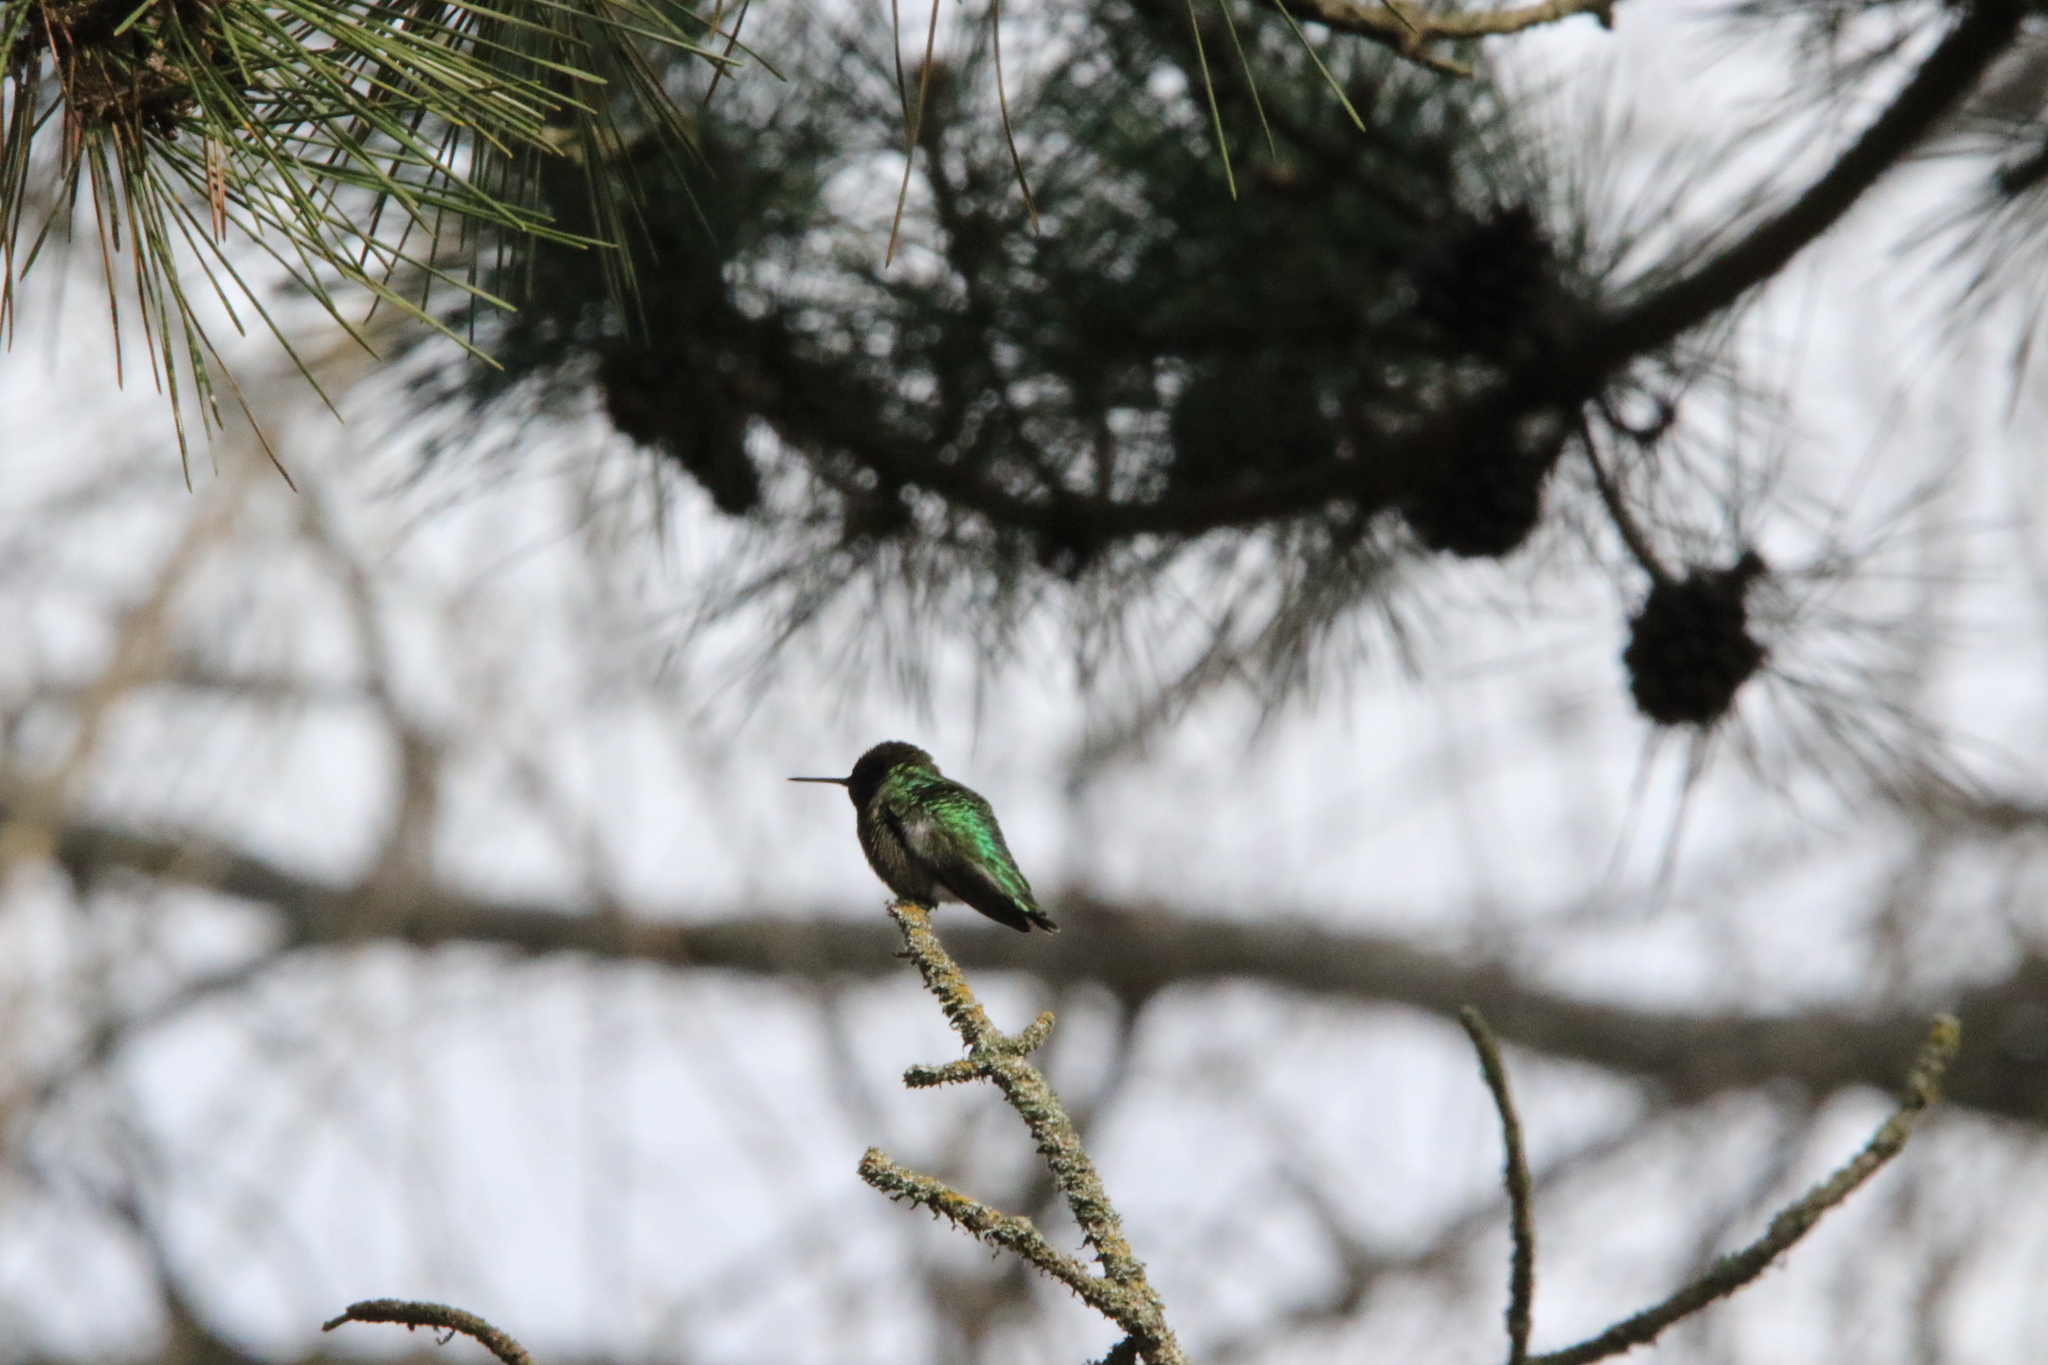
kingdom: Animalia
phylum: Chordata
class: Aves
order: Apodiformes
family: Trochilidae
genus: Calypte
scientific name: Calypte anna
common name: Anna's hummingbird
